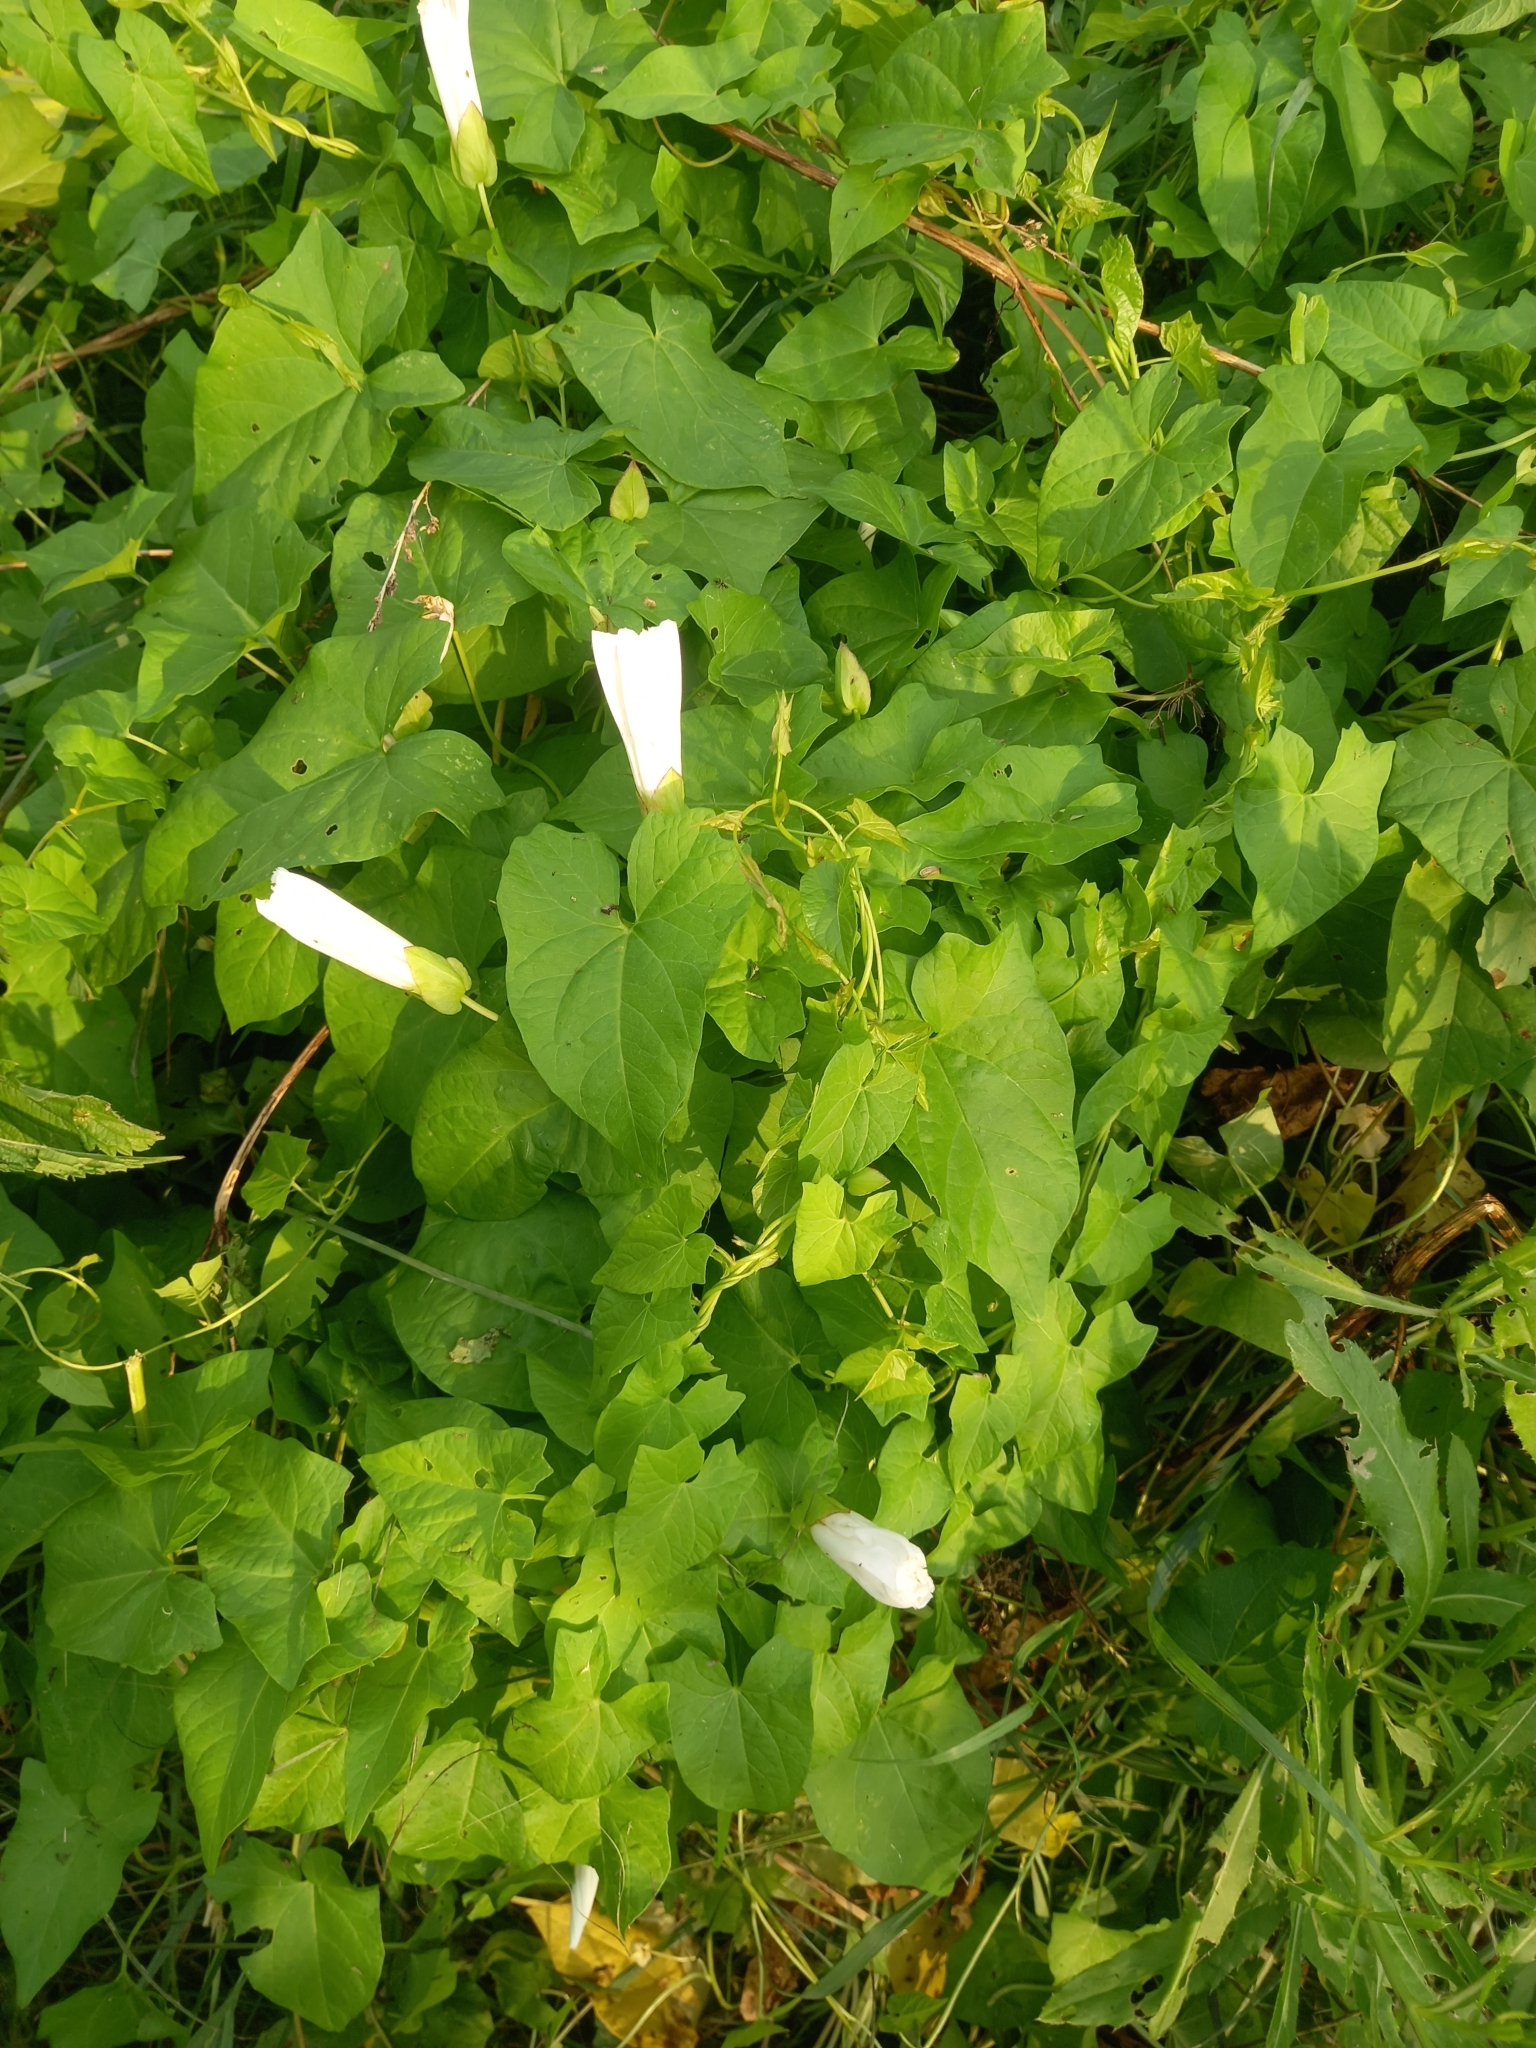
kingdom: Plantae
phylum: Tracheophyta
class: Magnoliopsida
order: Solanales
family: Convolvulaceae
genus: Calystegia
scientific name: Calystegia sepium
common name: Hedge bindweed
